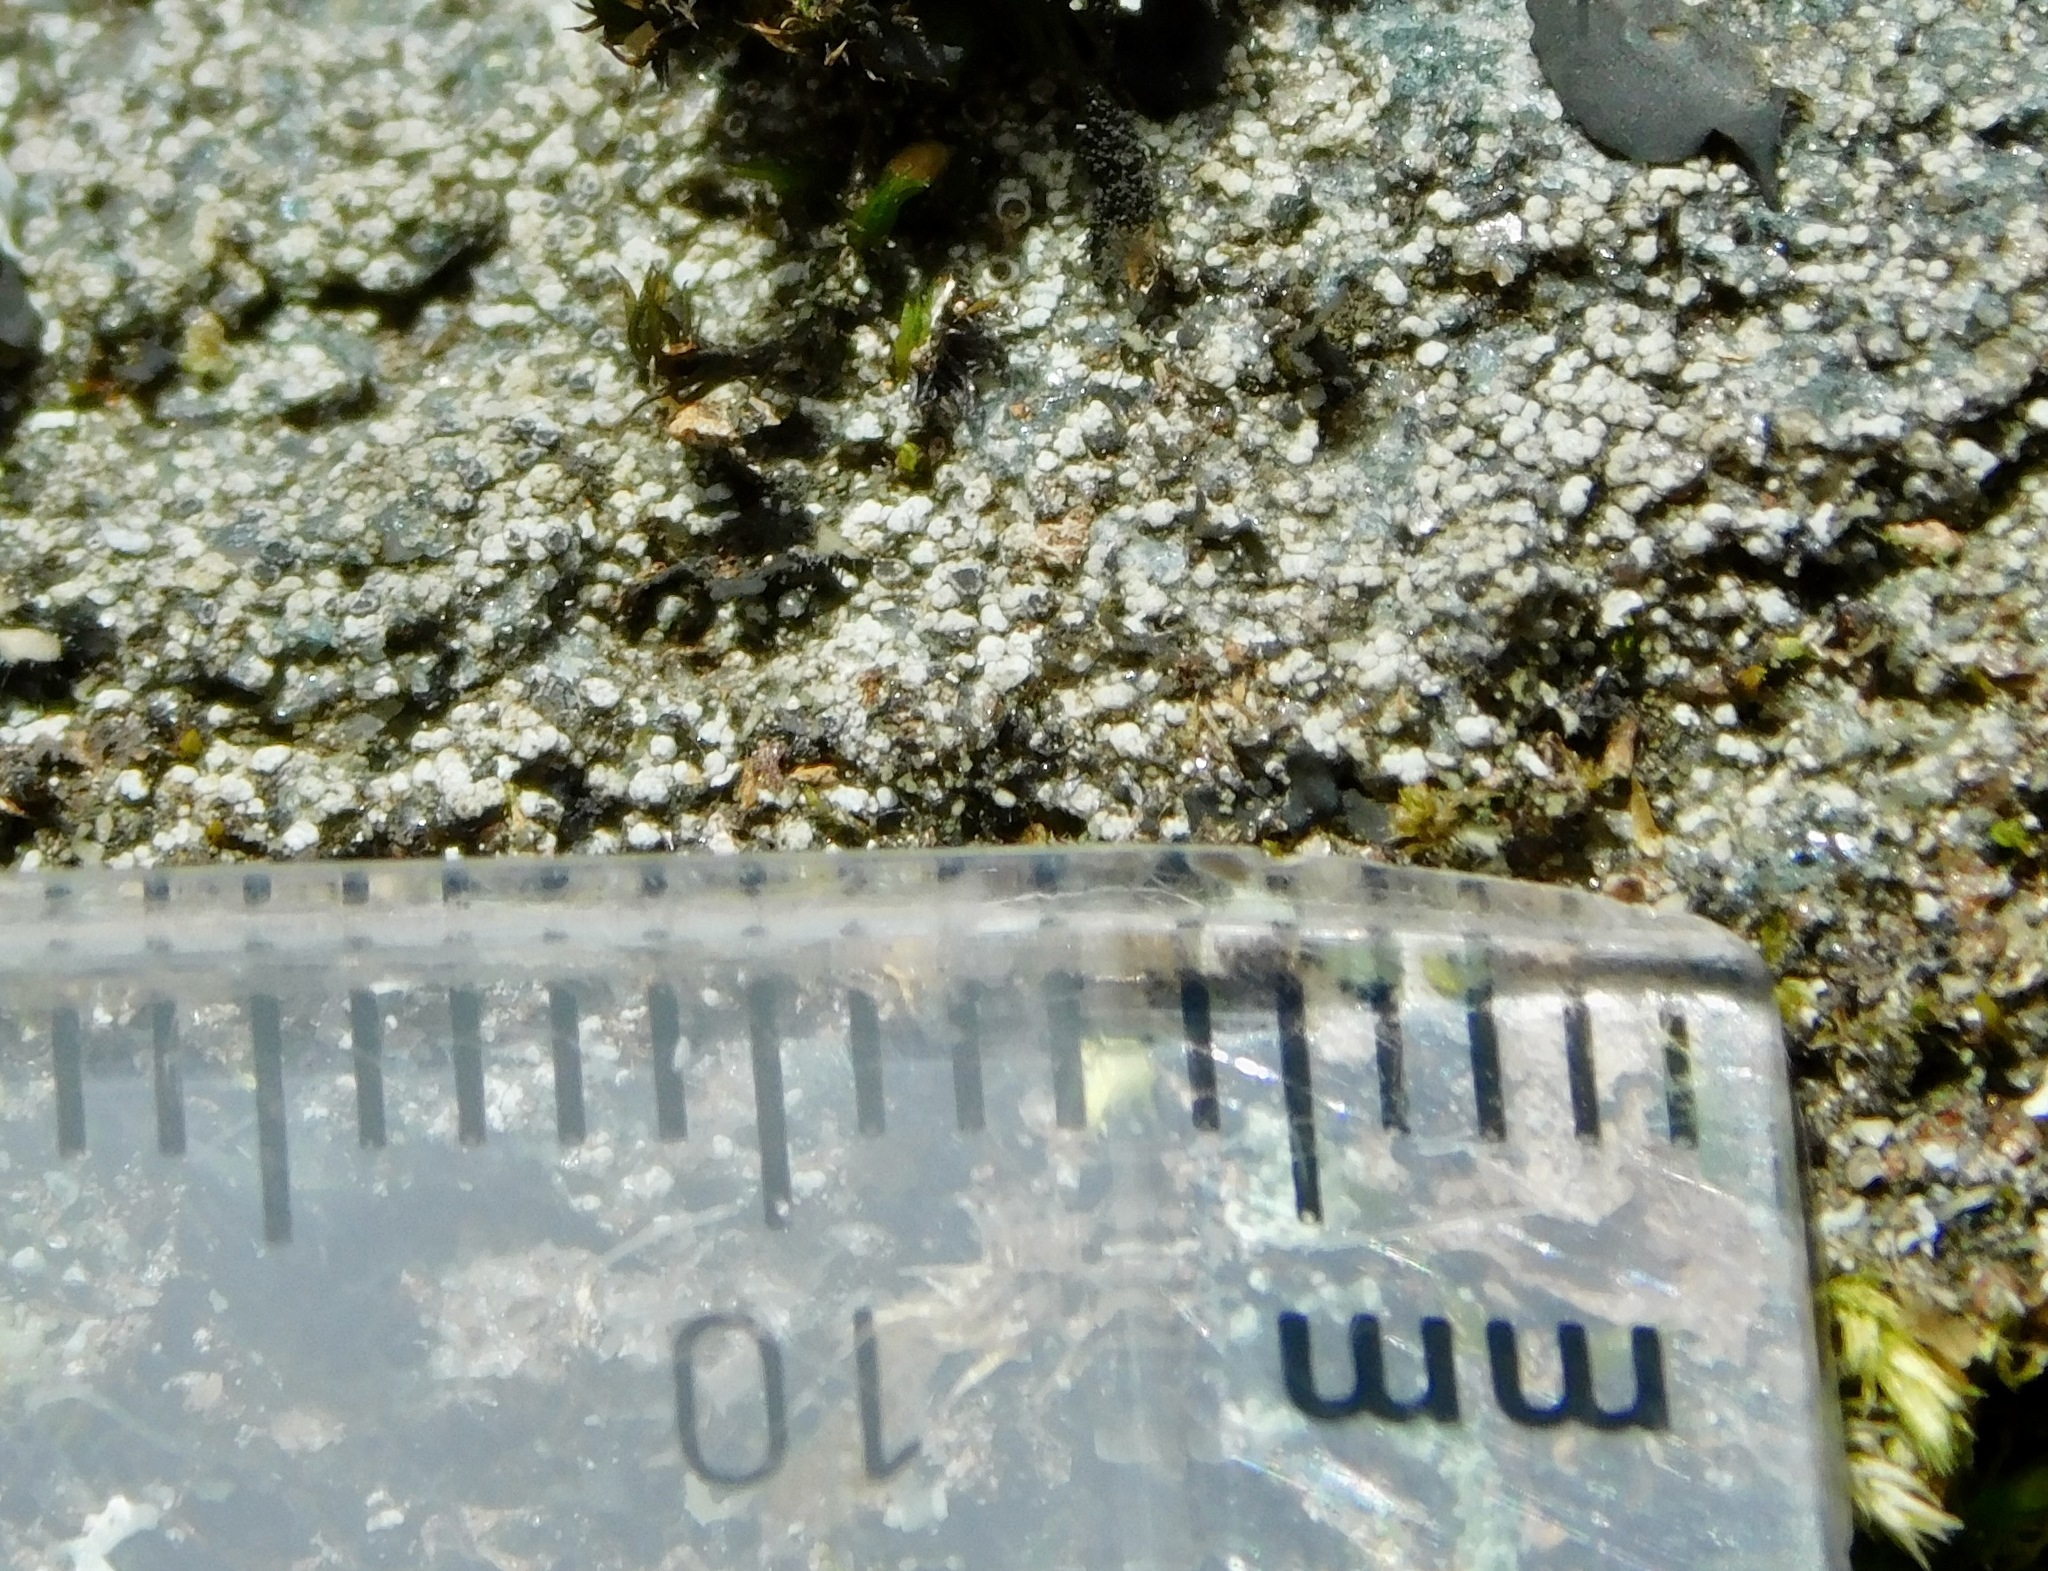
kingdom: Fungi
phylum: Ascomycota
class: Lecanoromycetes
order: Caliciales
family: Physciaceae
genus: Rinodina
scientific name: Rinodina tephraspis
